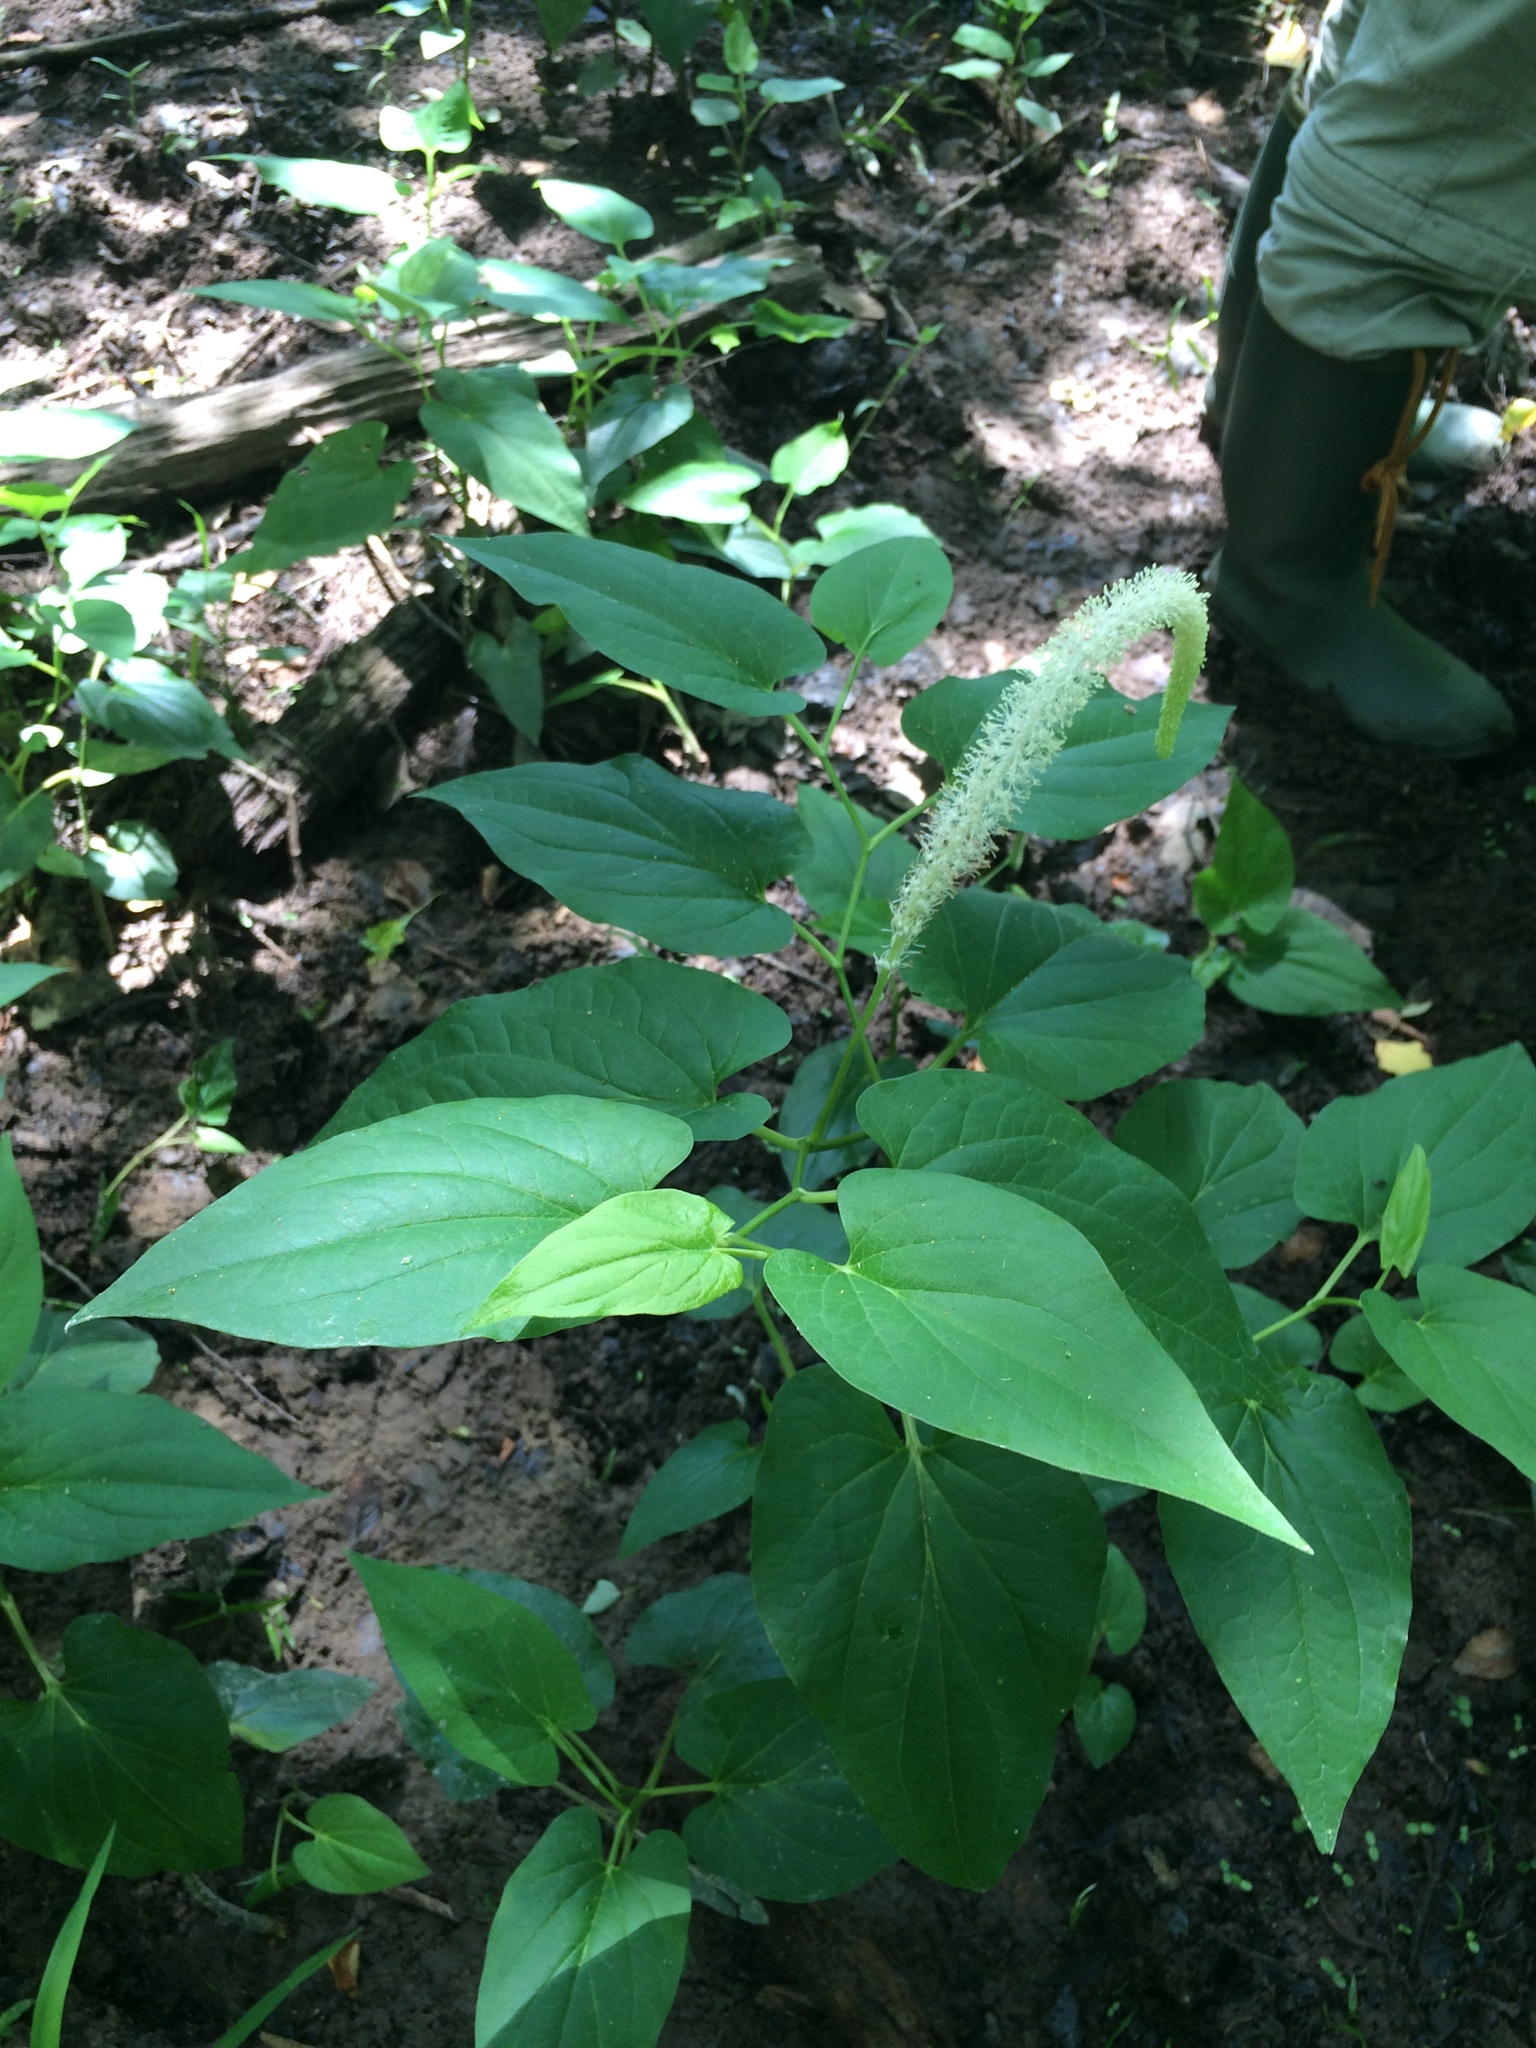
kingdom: Plantae
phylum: Tracheophyta
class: Magnoliopsida
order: Piperales
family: Saururaceae
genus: Saururus
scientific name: Saururus cernuus
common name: Lizard's-tail
